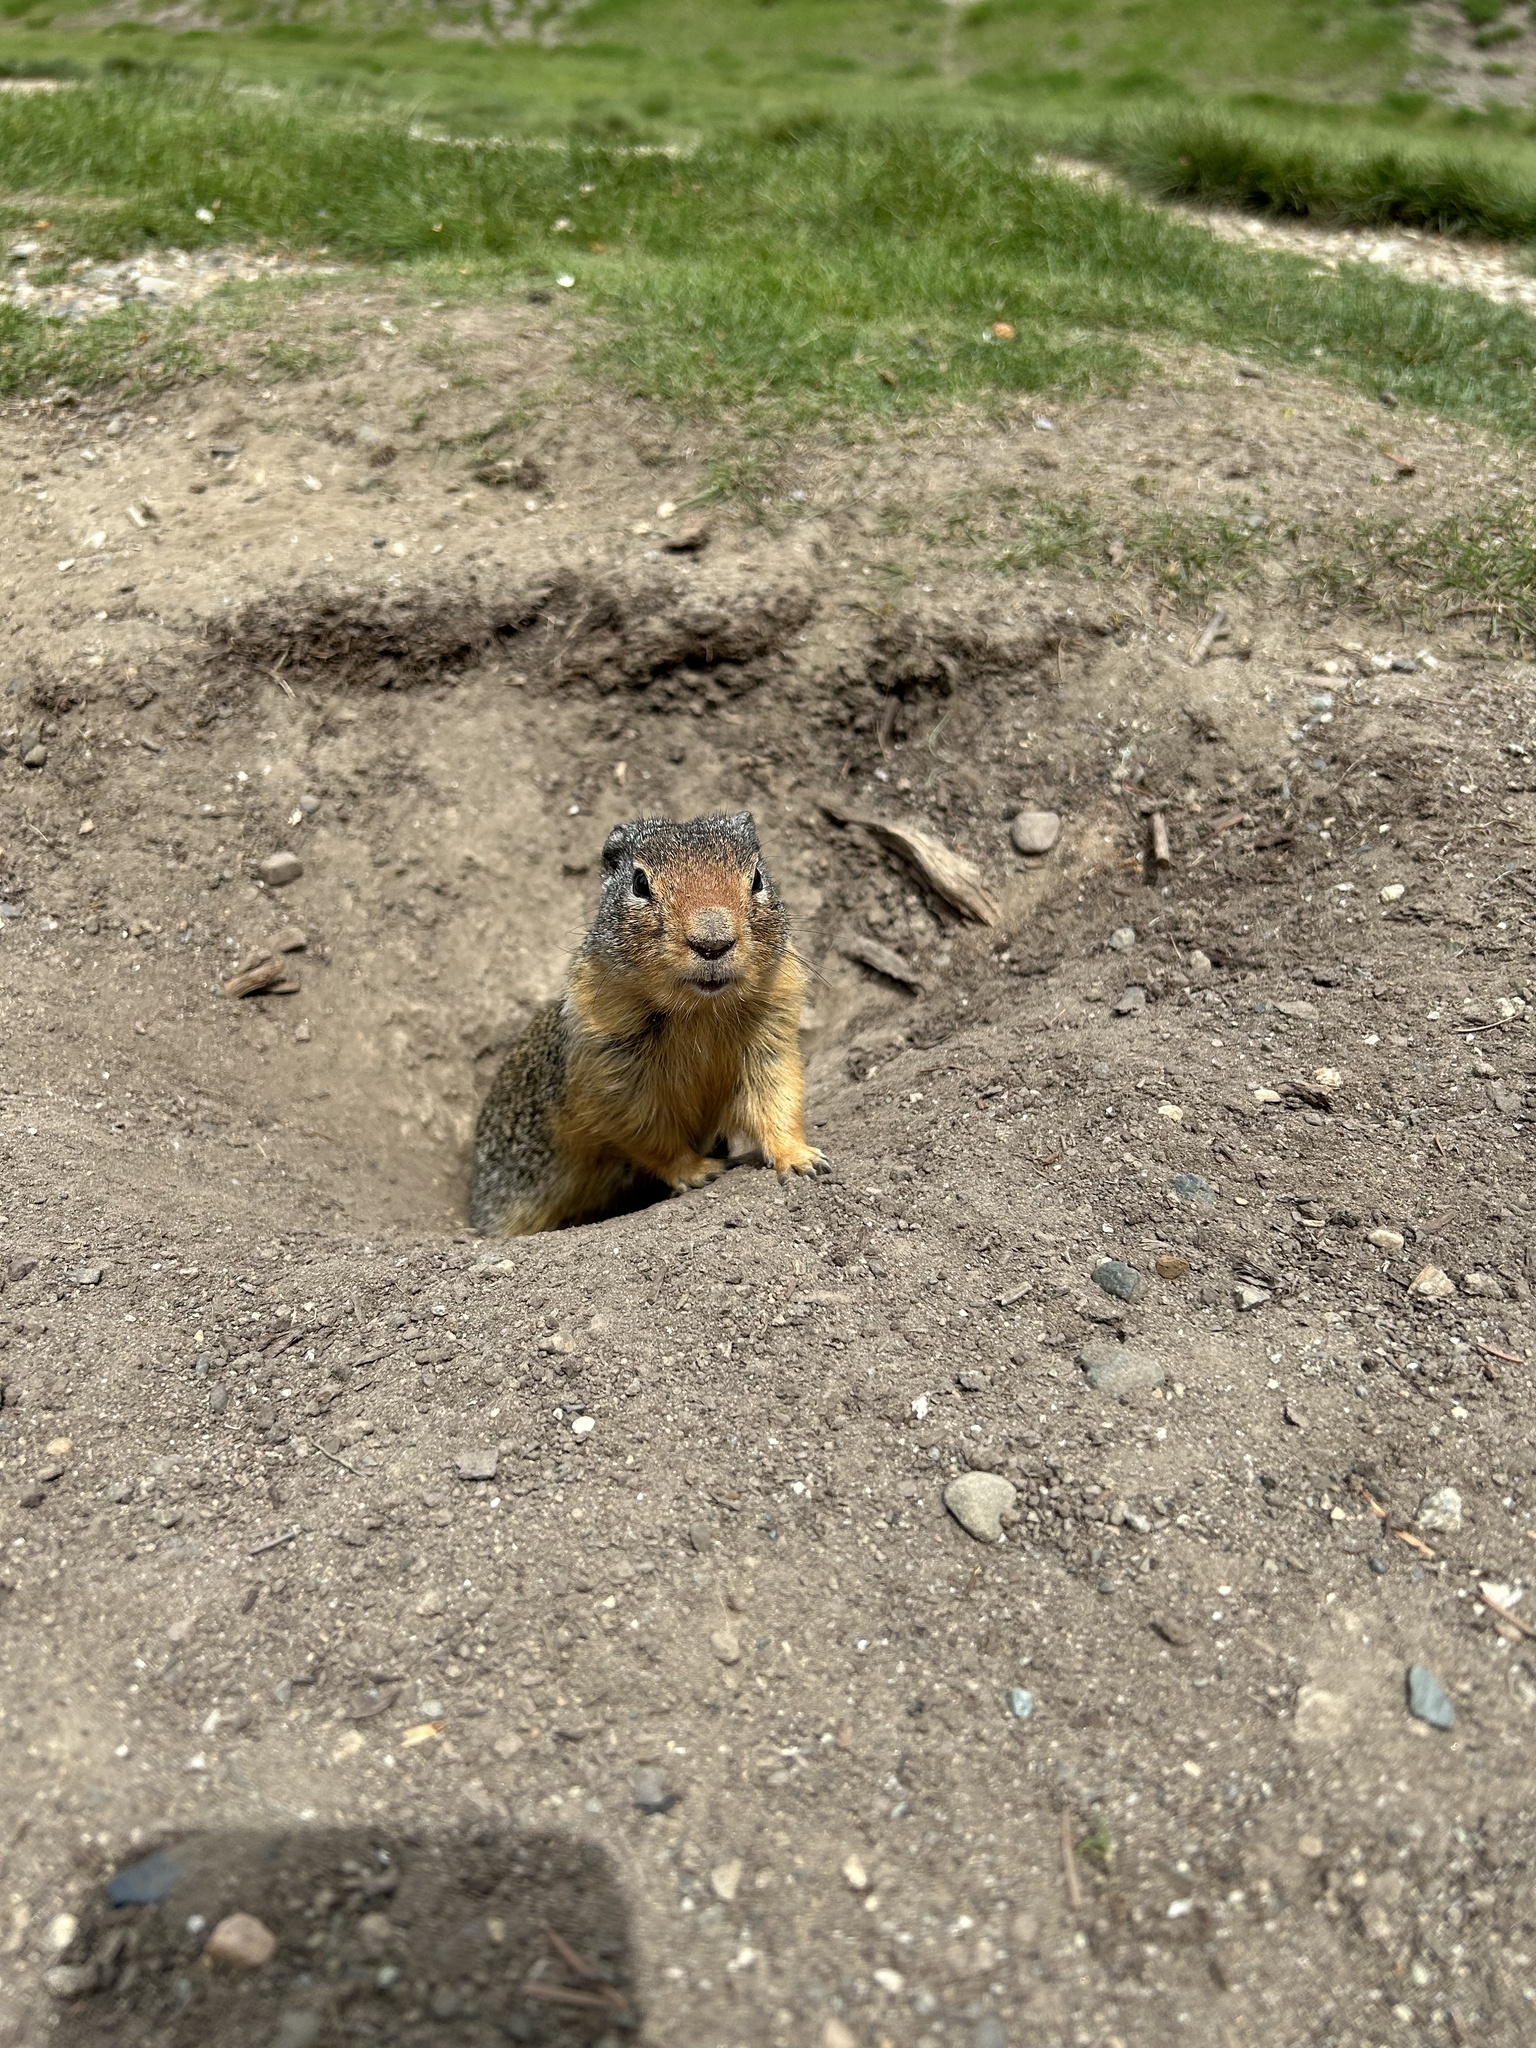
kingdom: Animalia
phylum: Chordata
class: Mammalia
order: Rodentia
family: Sciuridae
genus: Urocitellus
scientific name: Urocitellus columbianus
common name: Columbian ground squirrel
